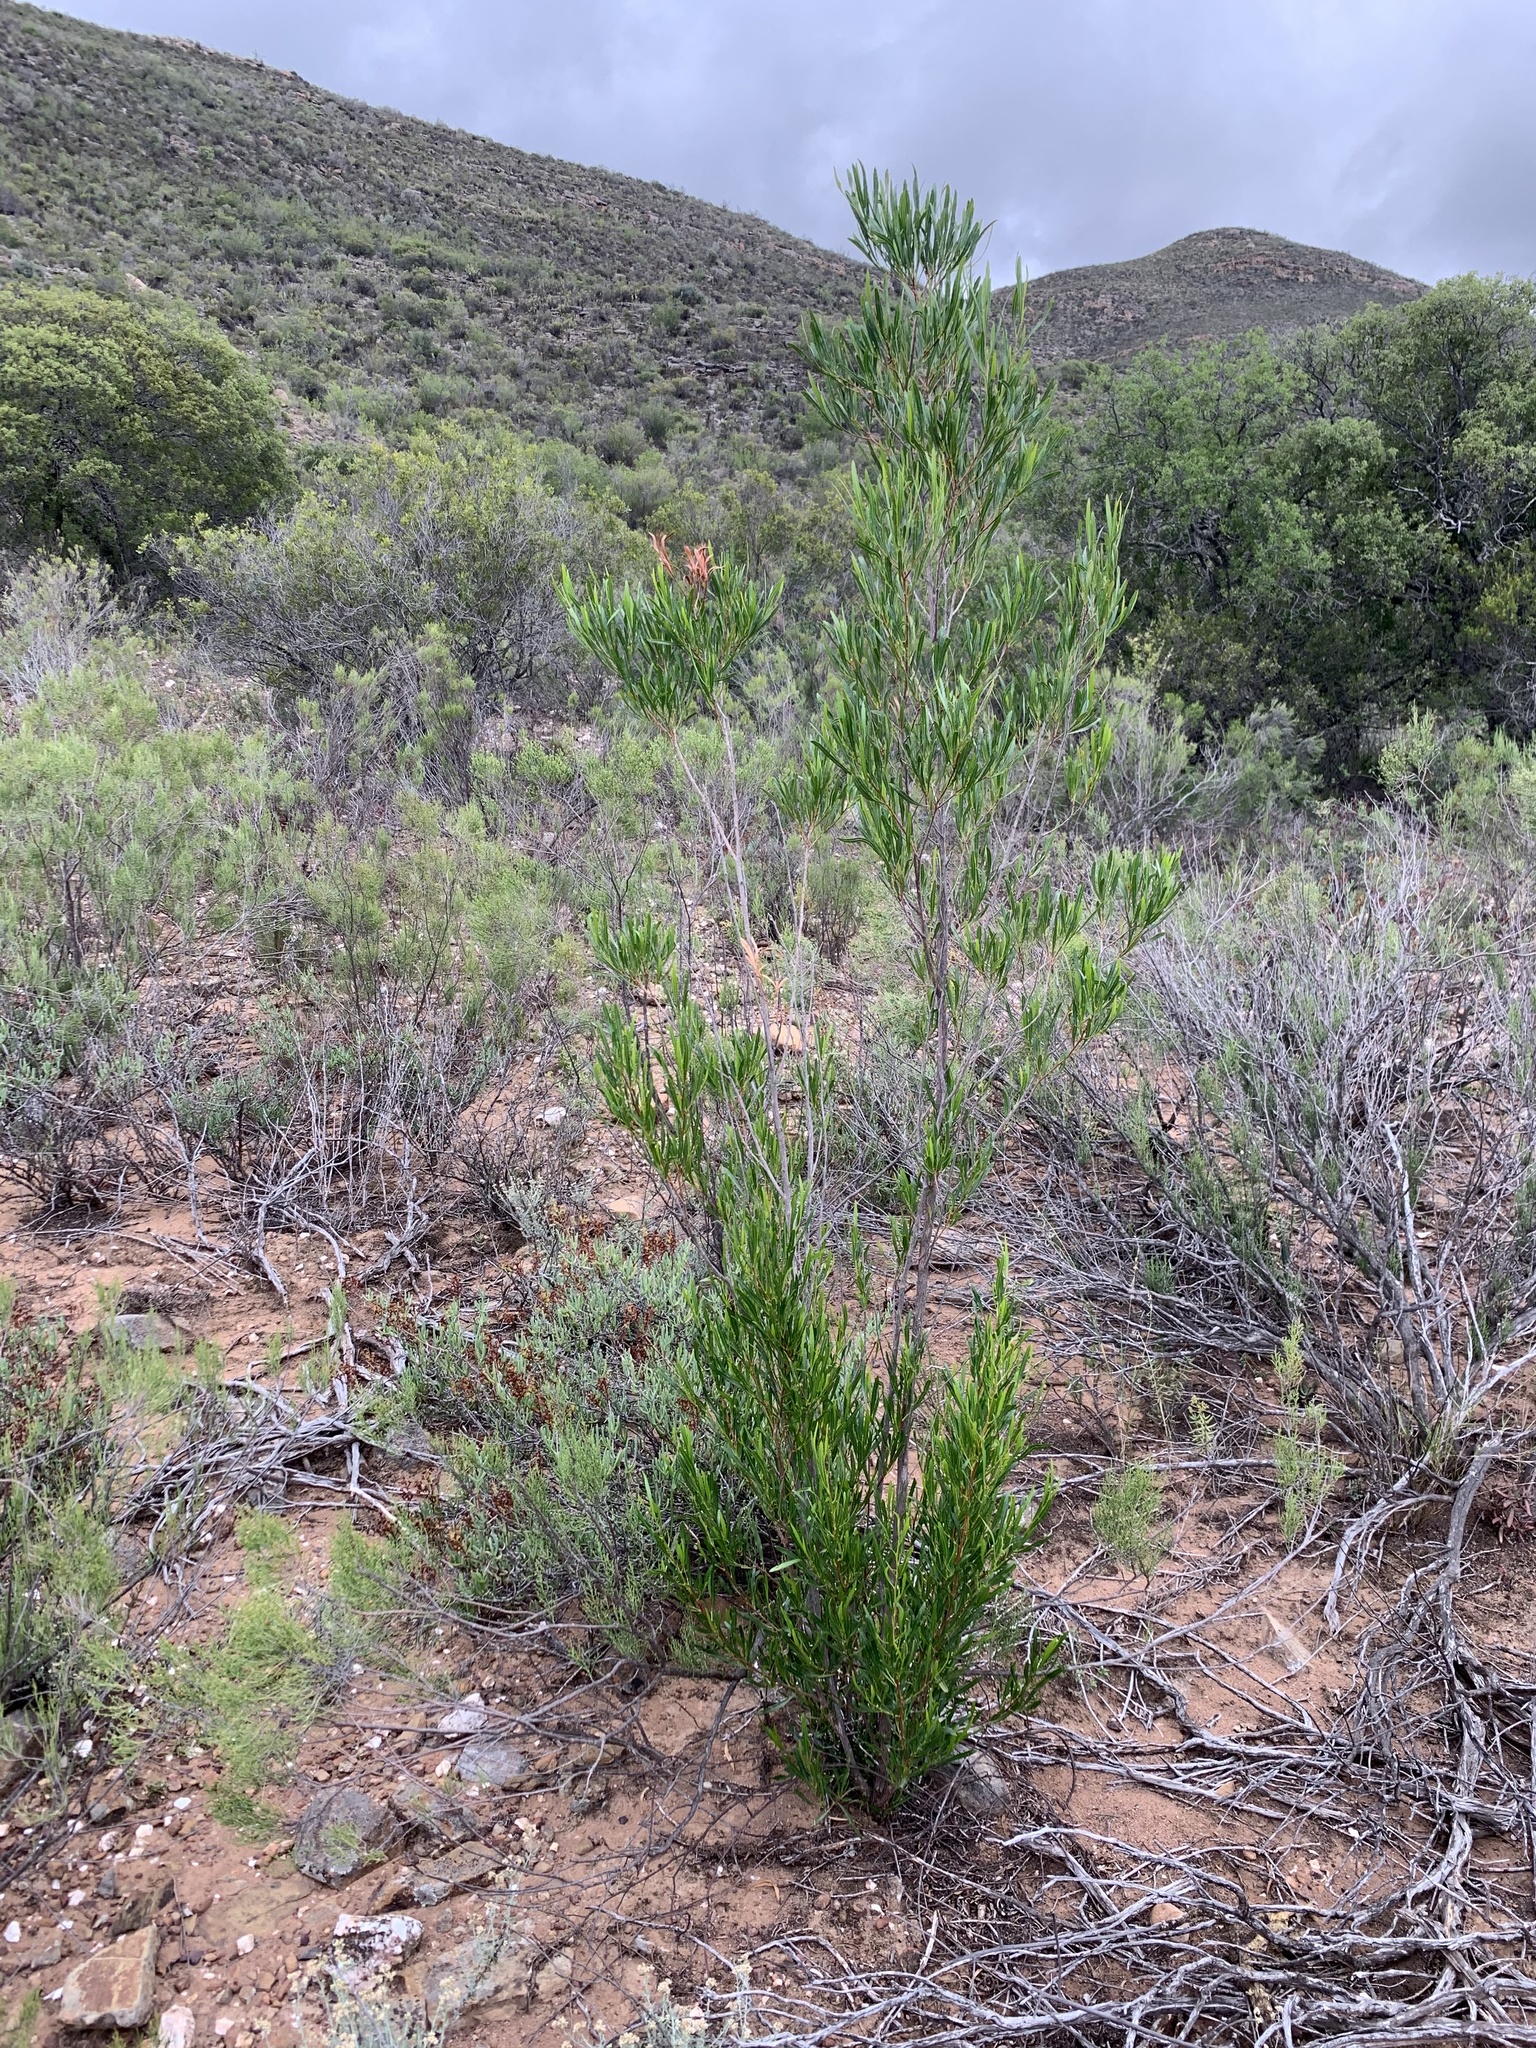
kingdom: Plantae
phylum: Tracheophyta
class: Magnoliopsida
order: Sapindales
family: Sapindaceae
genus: Dodonaea
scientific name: Dodonaea viscosa
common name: Hopbush
